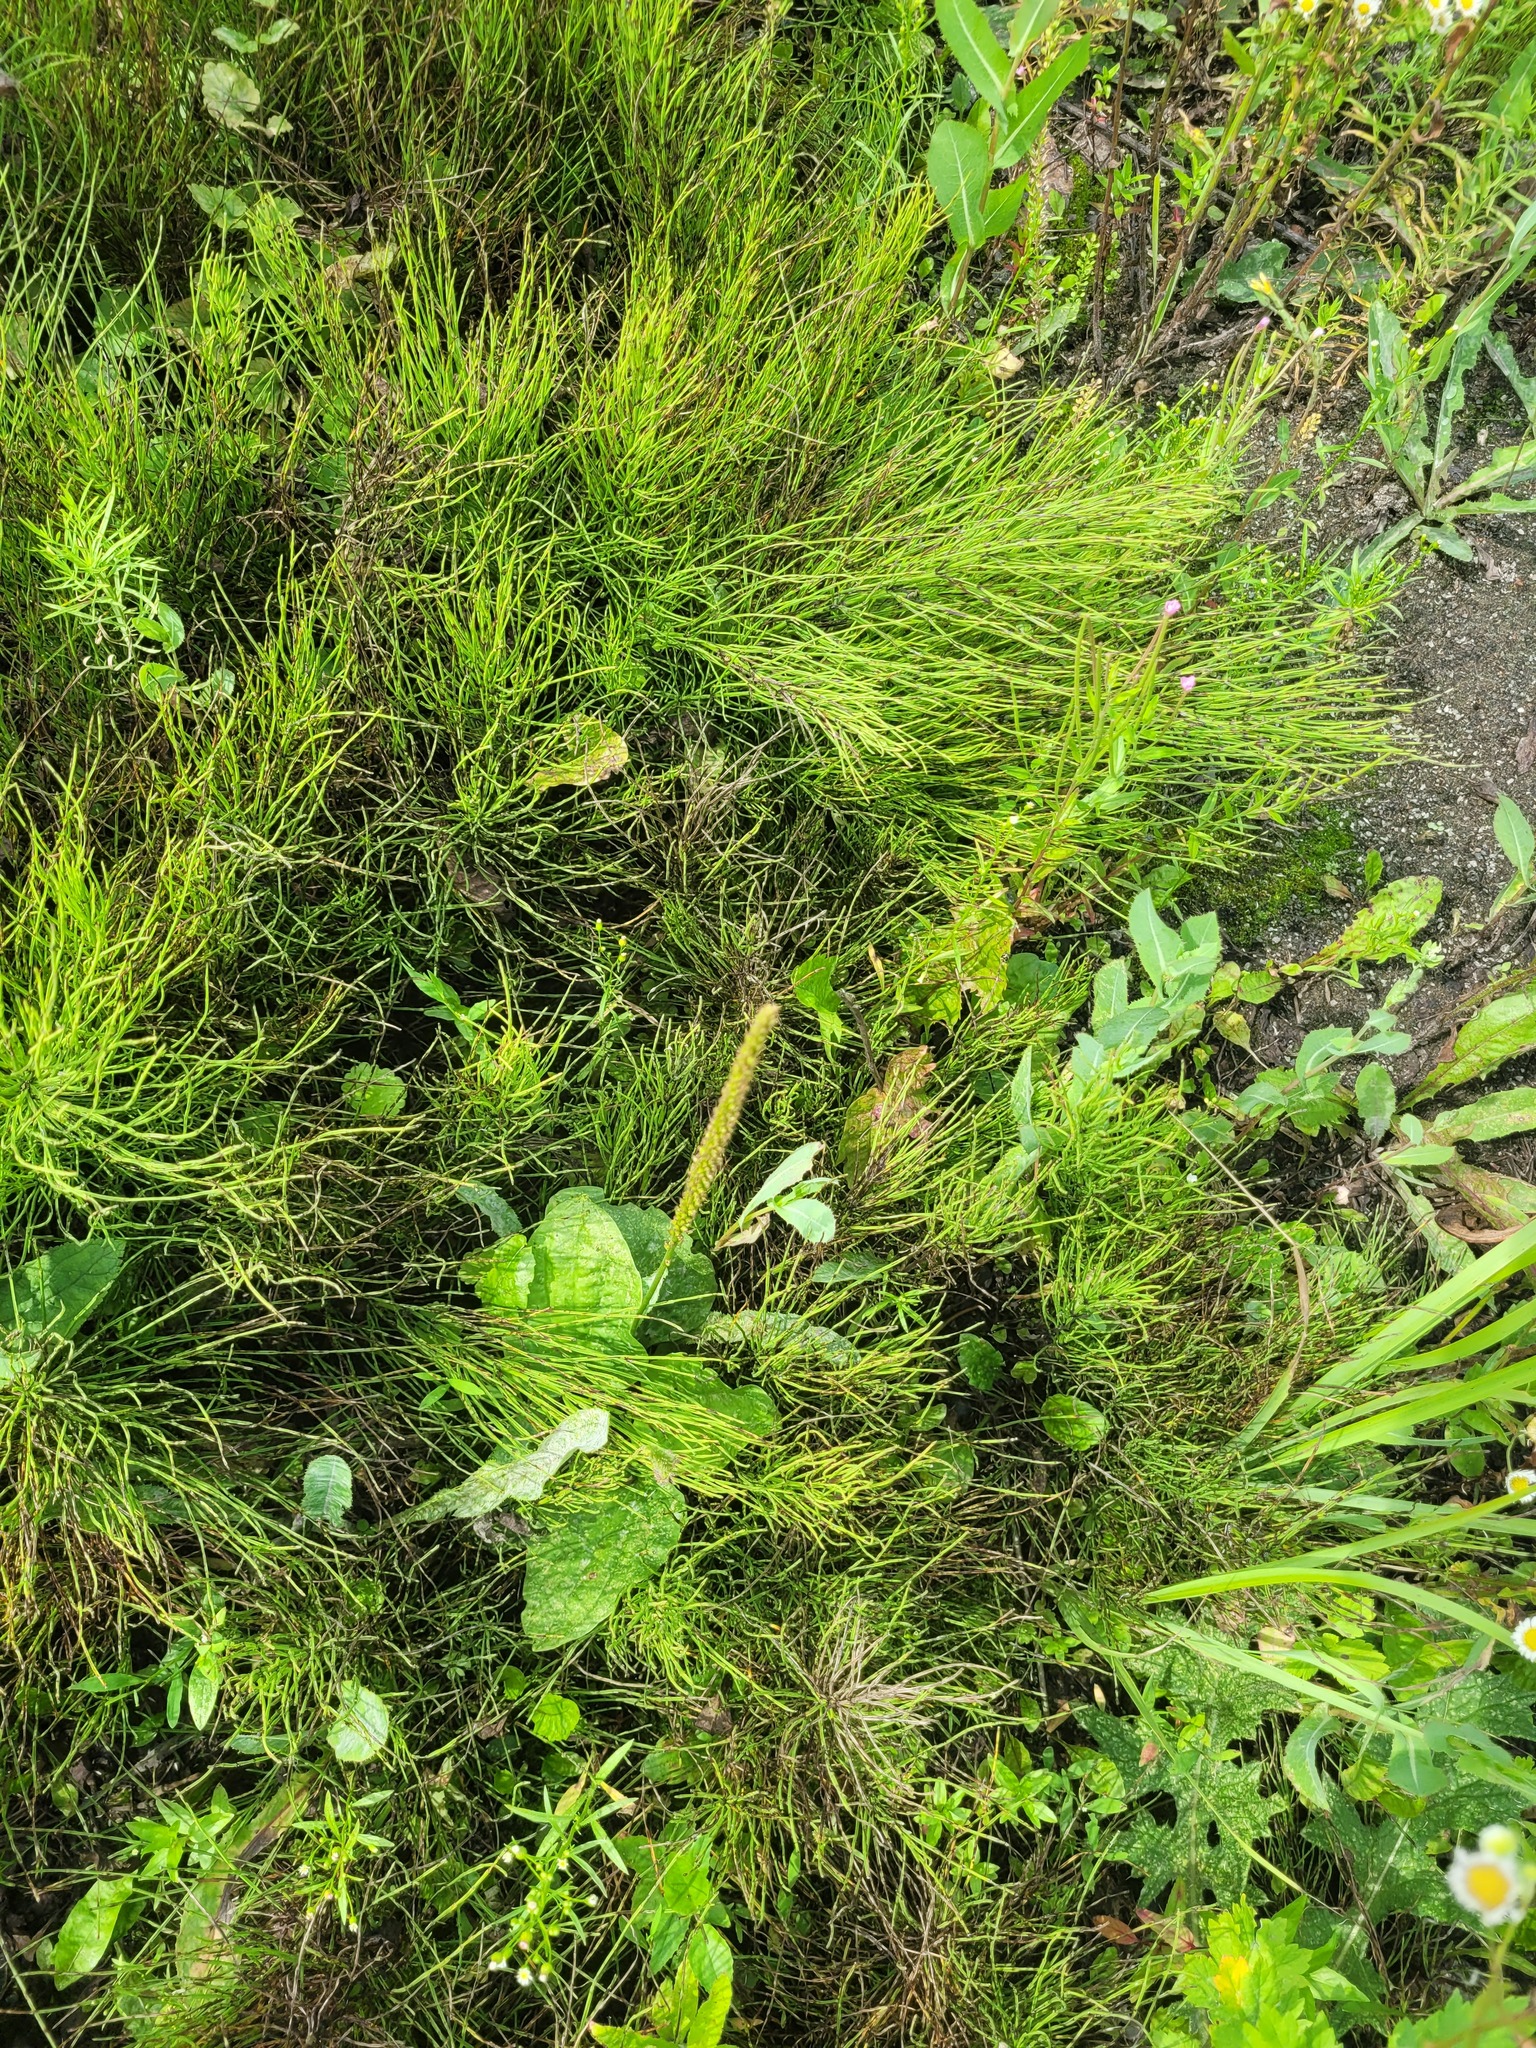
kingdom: Plantae
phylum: Tracheophyta
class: Magnoliopsida
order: Lamiales
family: Plantaginaceae
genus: Plantago
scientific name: Plantago major
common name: Common plantain
